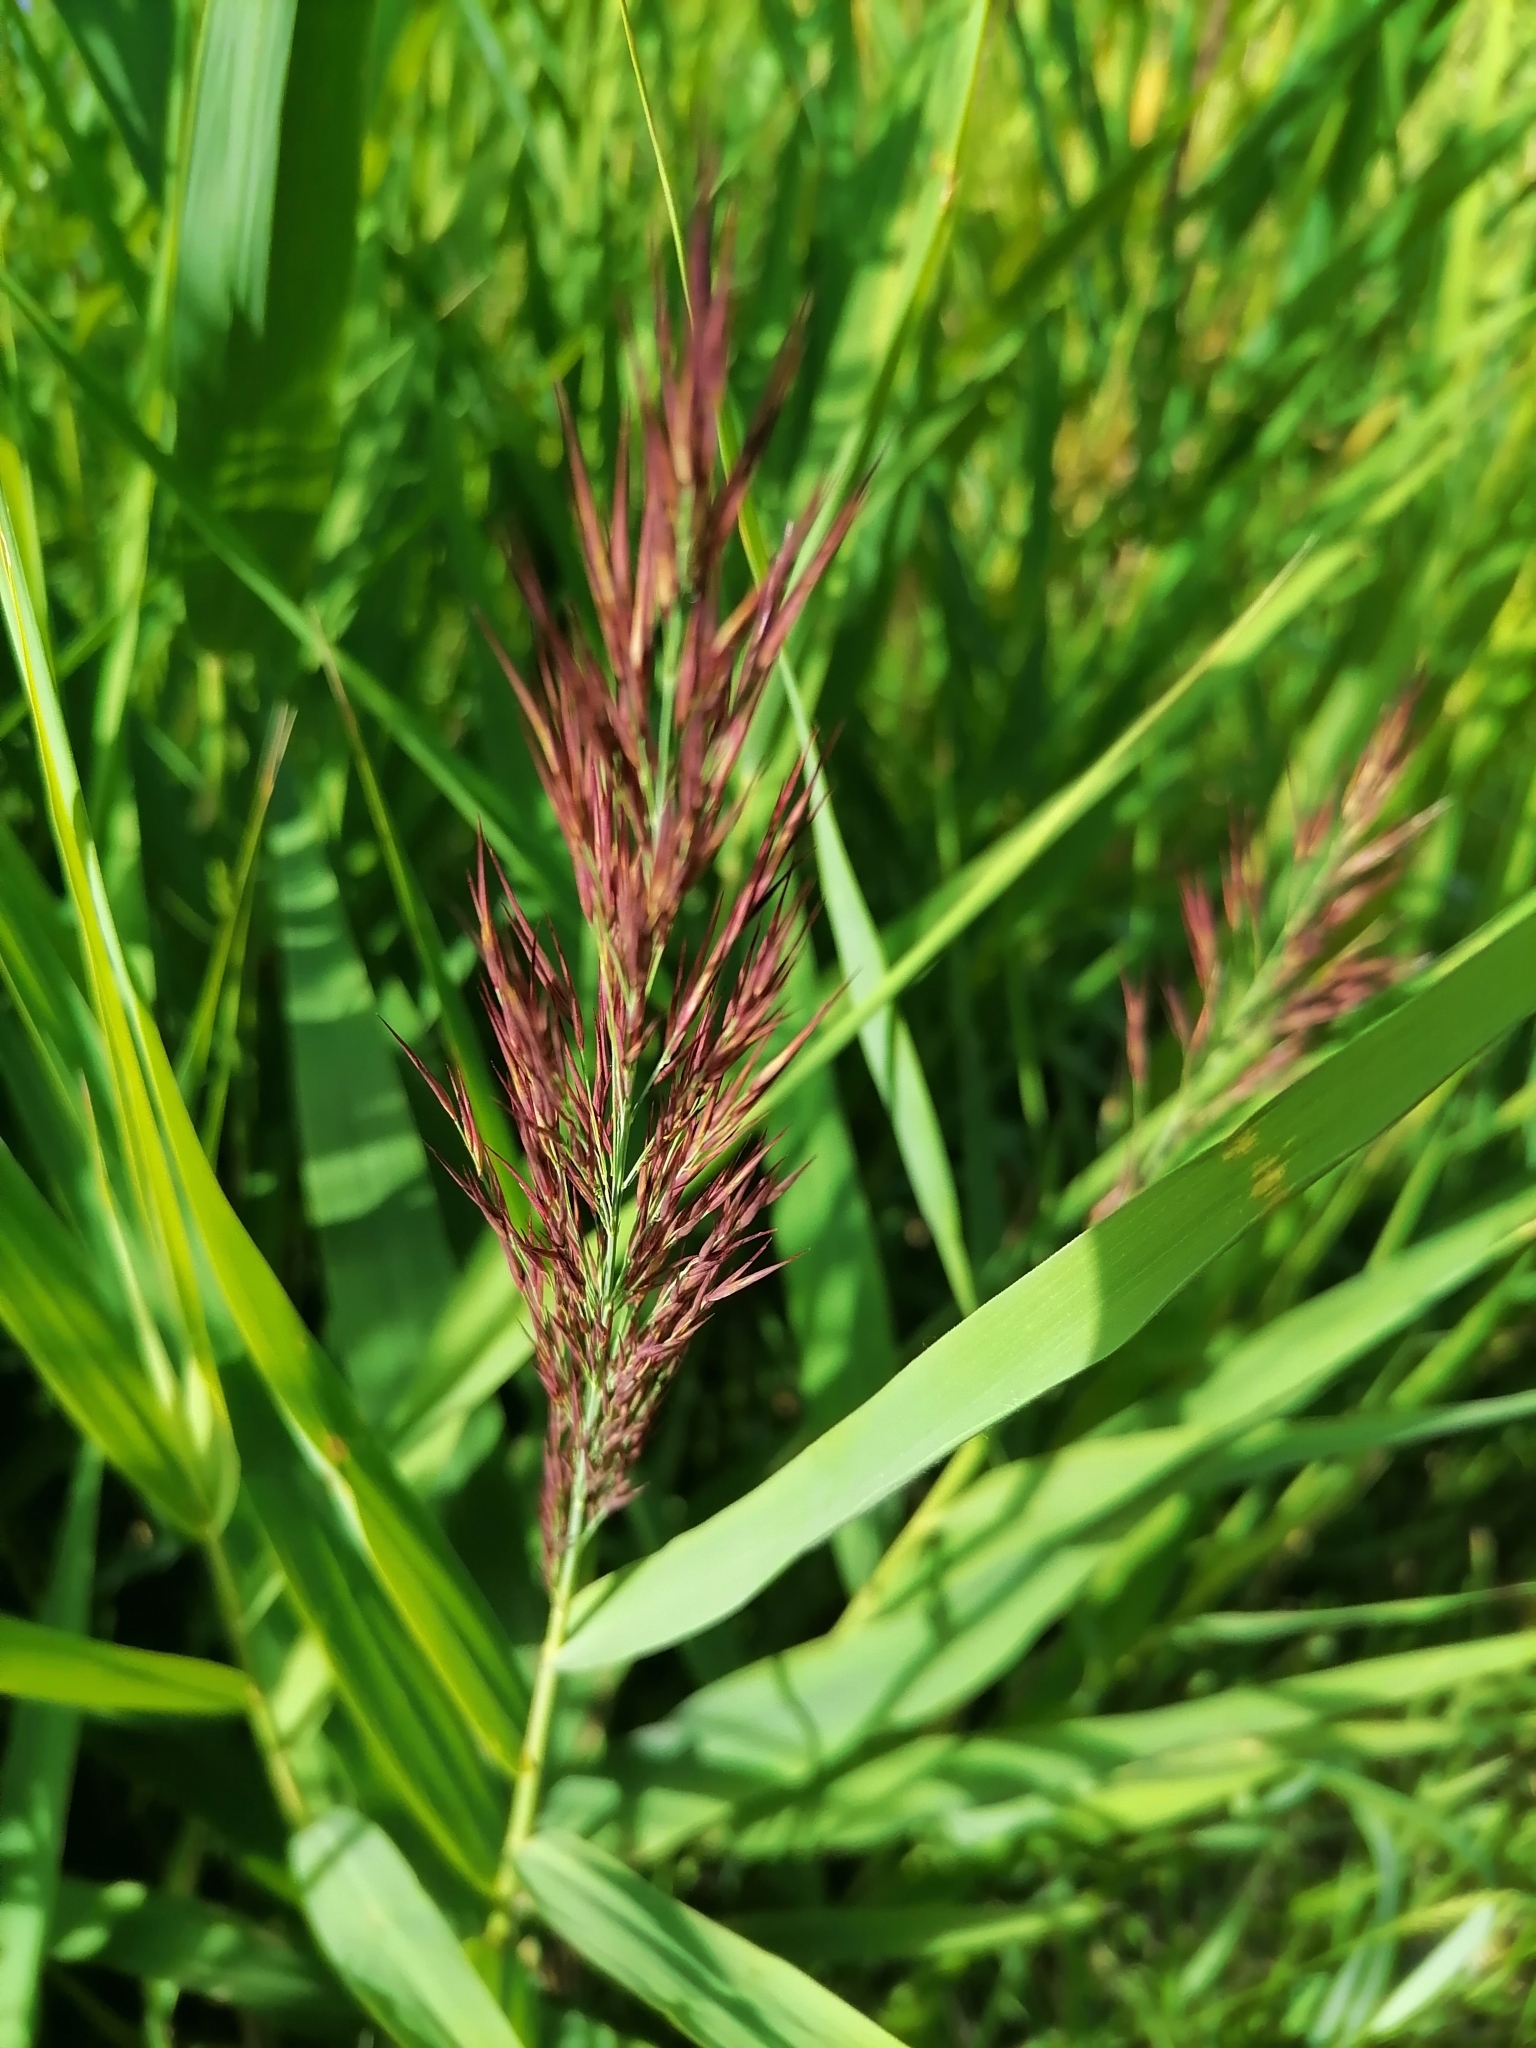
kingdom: Plantae
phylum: Tracheophyta
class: Liliopsida
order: Poales
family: Poaceae
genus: Phragmites
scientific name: Phragmites australis
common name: Common reed
